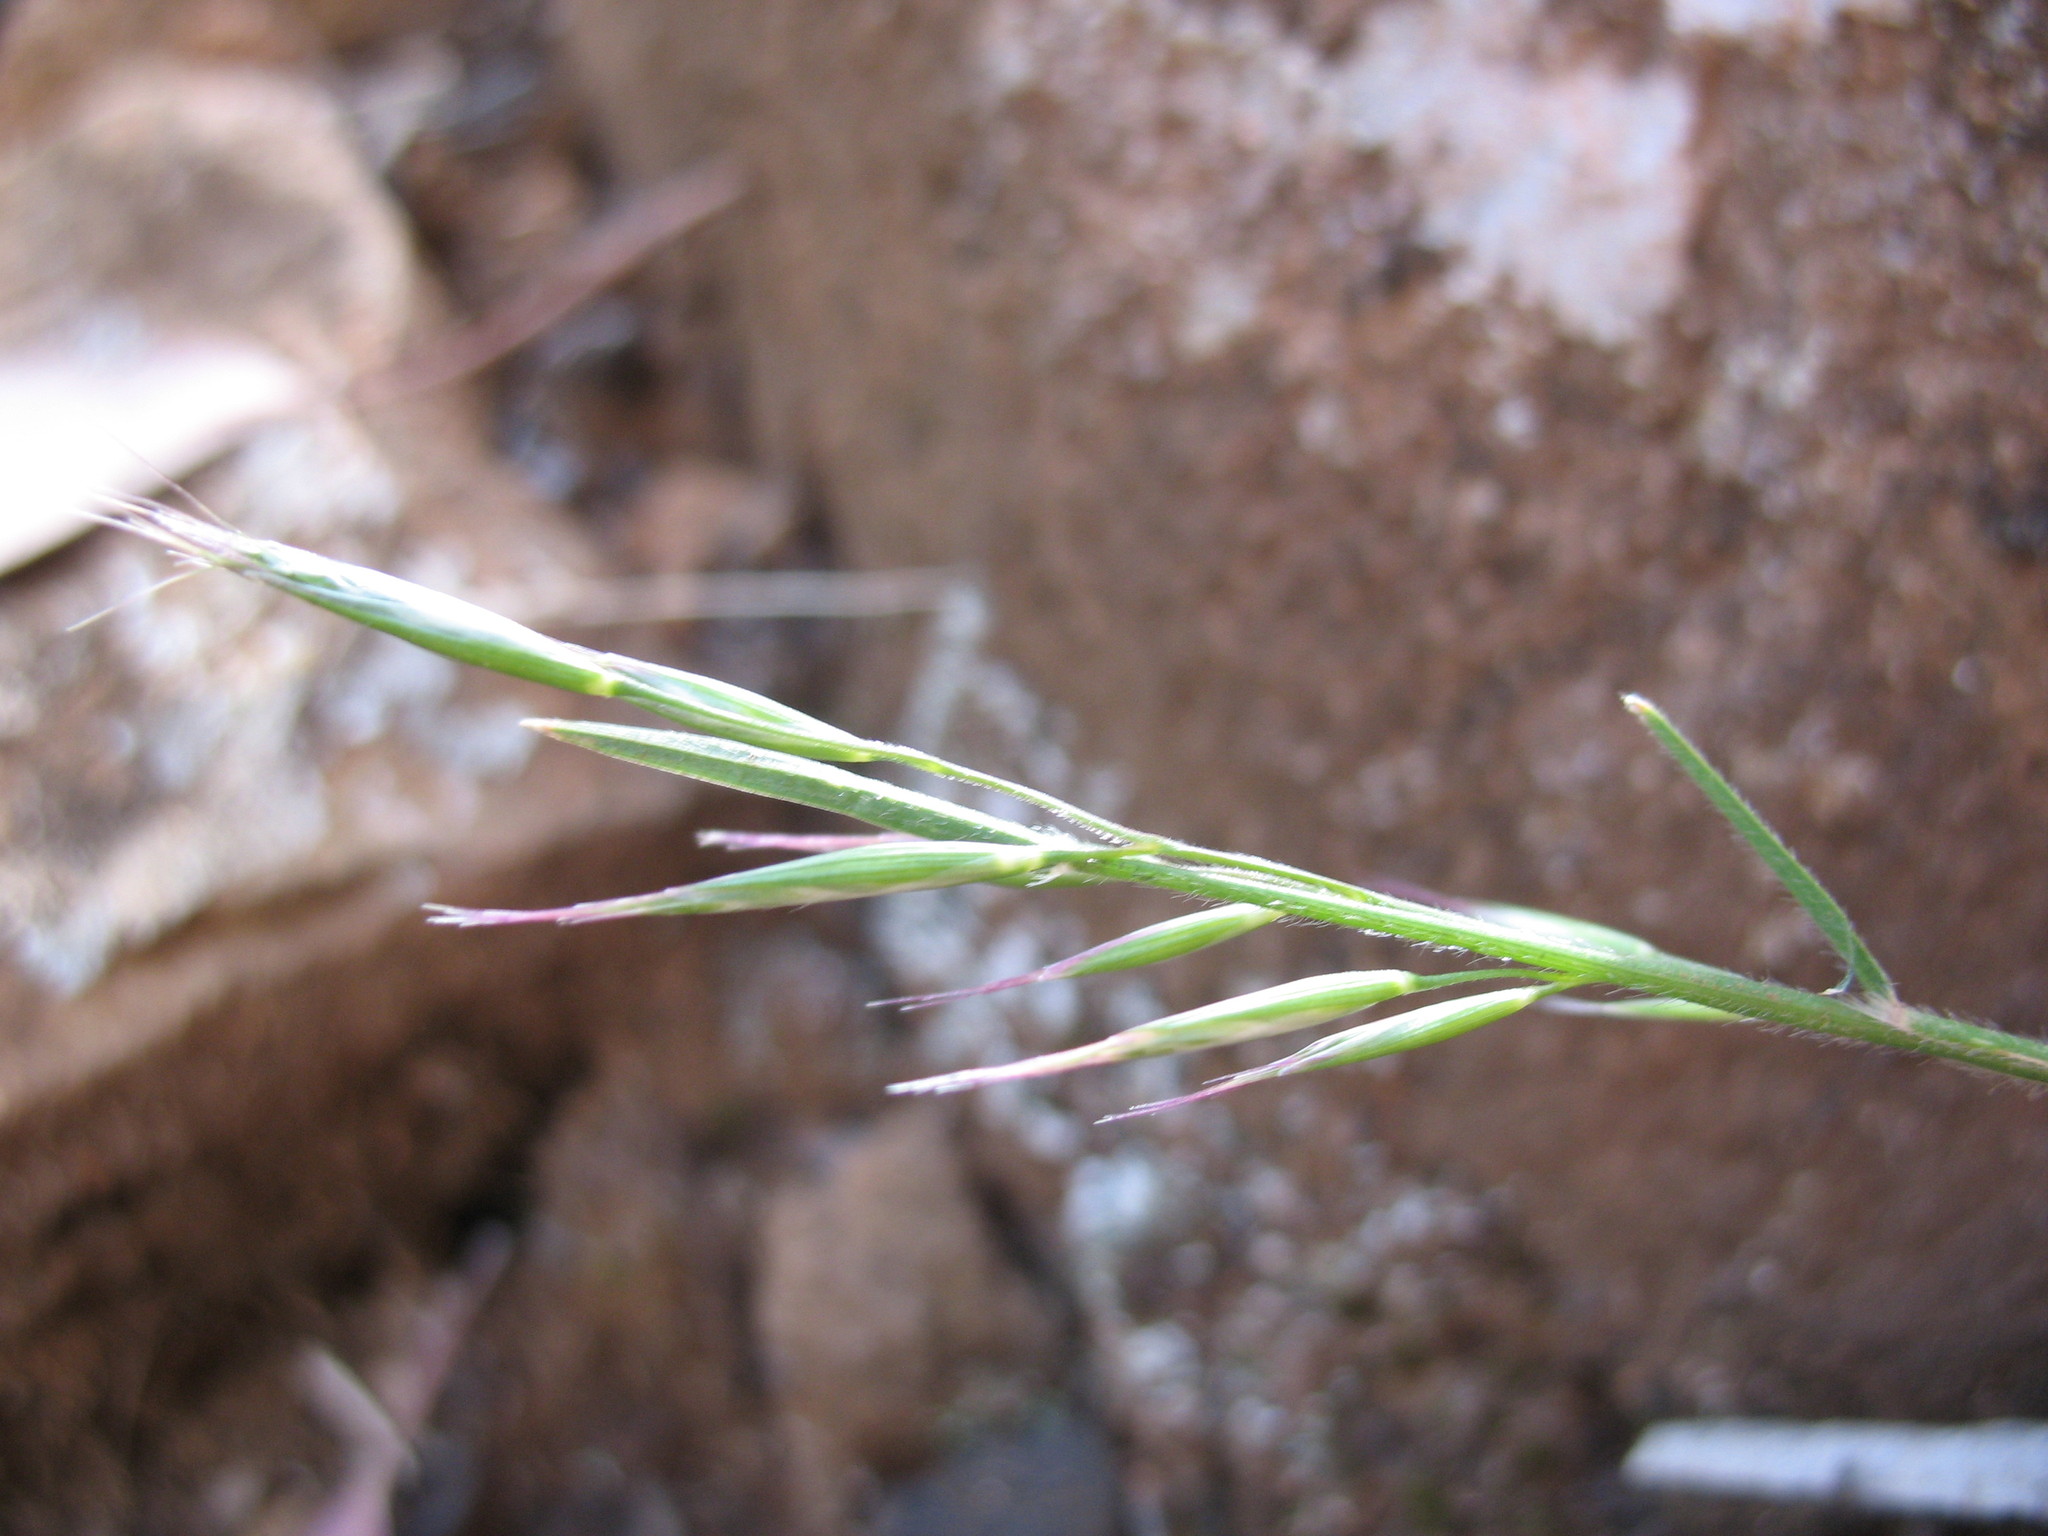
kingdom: Plantae
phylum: Tracheophyta
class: Liliopsida
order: Poales
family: Poaceae
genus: Rytidosperma
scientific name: Rytidosperma racemosum
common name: Wallaby-grass
